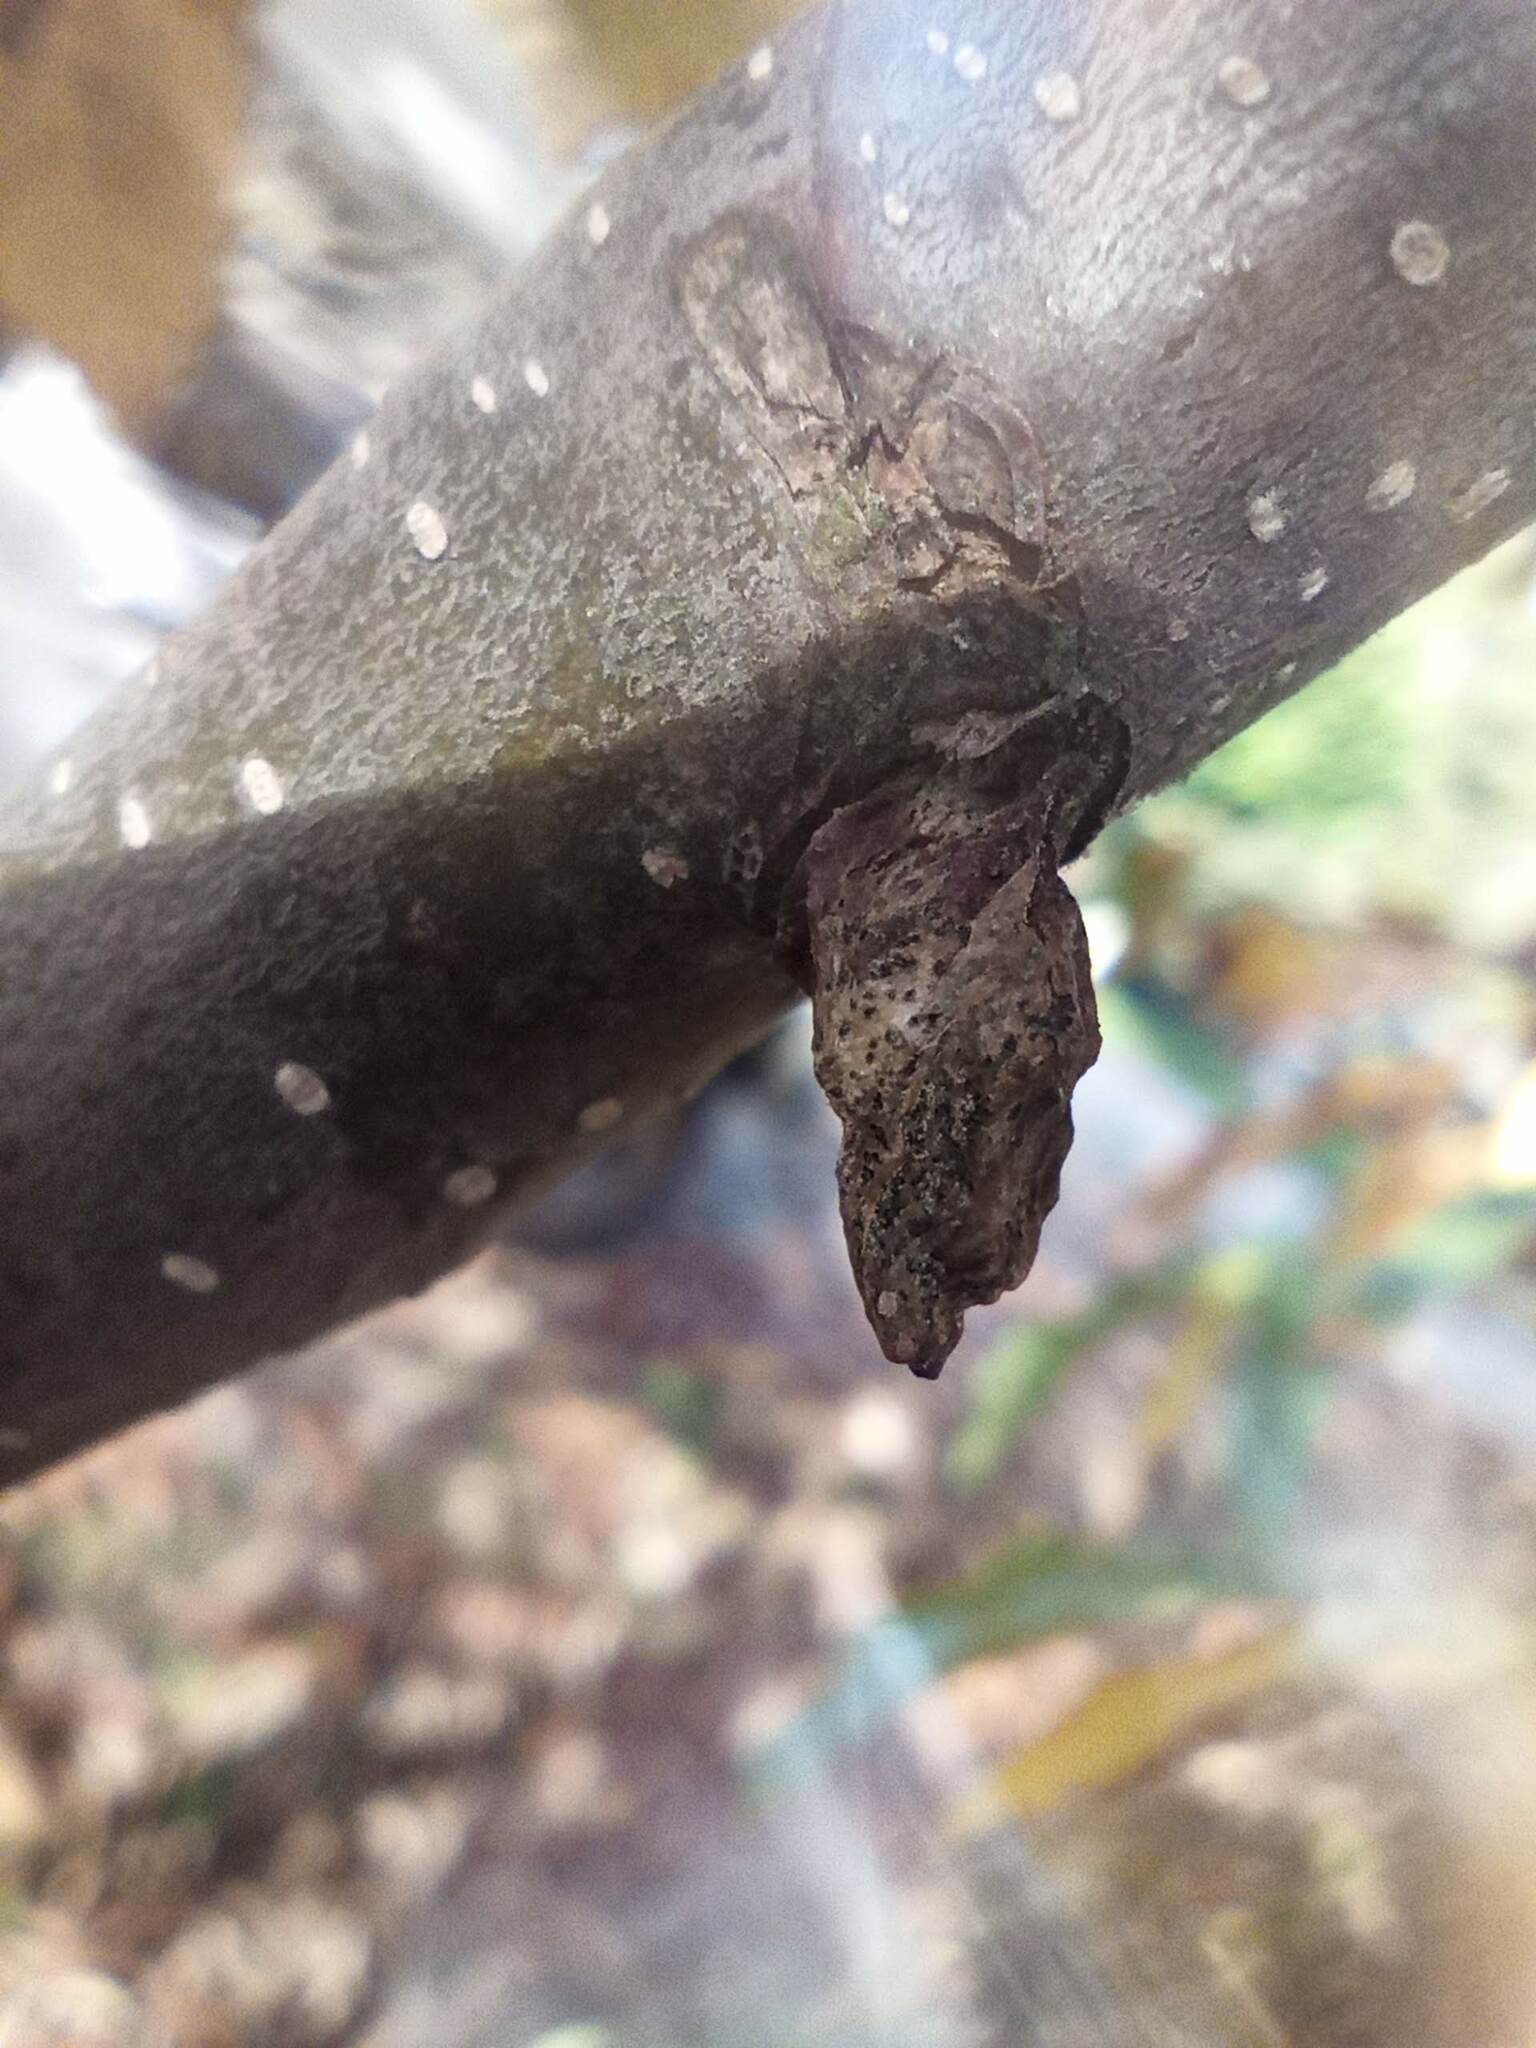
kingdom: Animalia
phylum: Arthropoda
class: Insecta
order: Hymenoptera
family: Cynipidae
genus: Dryocosmus
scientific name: Dryocosmus kuriphilus
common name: Asian chestnut gall wasp
